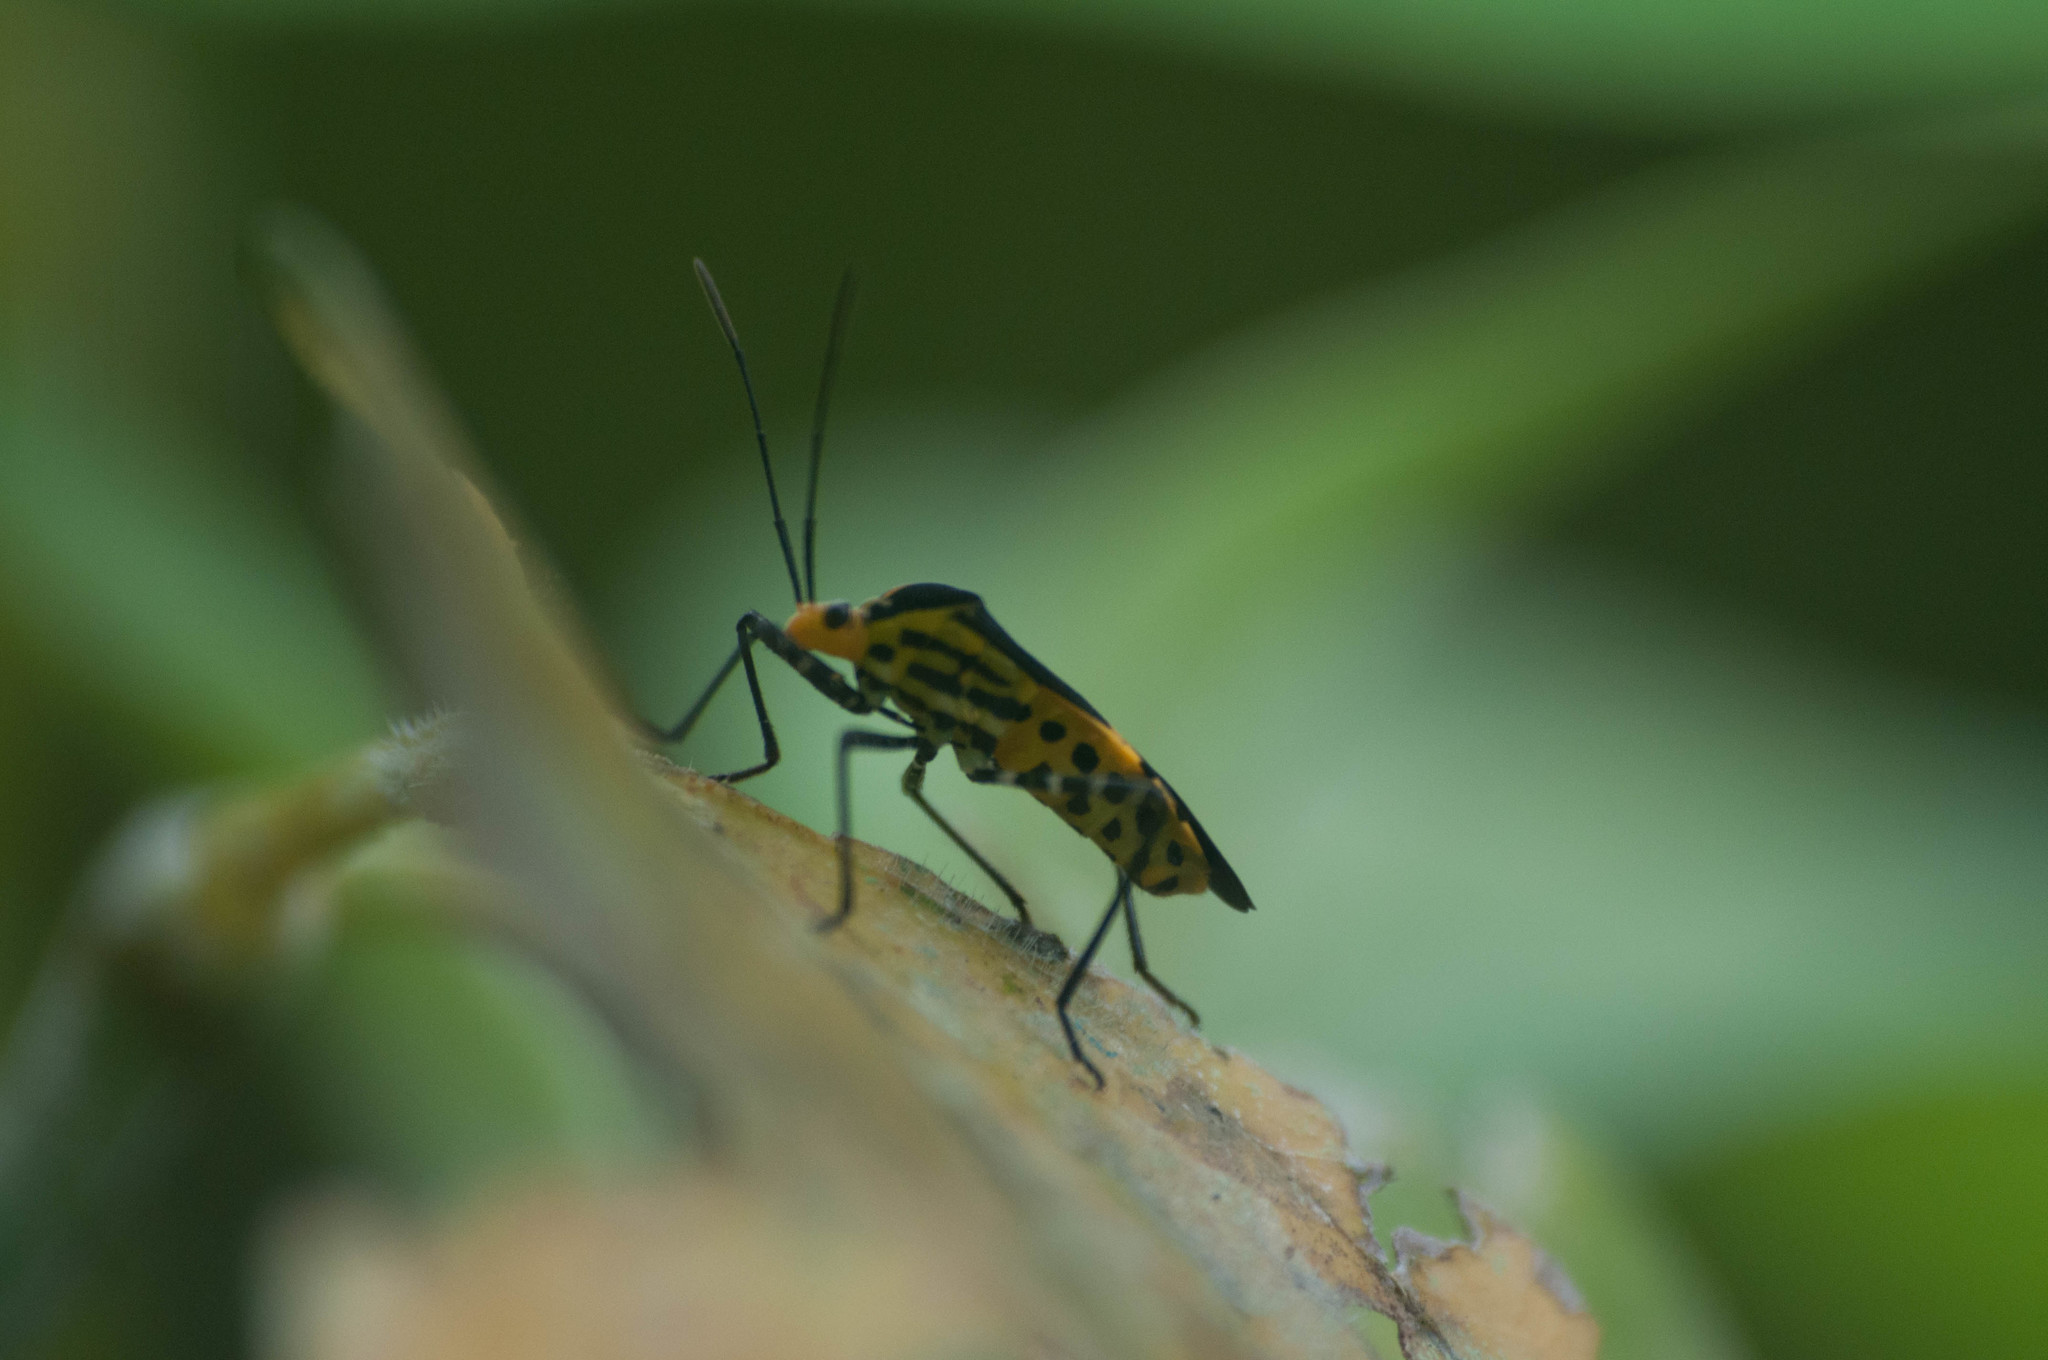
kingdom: Animalia
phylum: Arthropoda
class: Insecta
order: Hemiptera
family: Coreidae
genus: Hypselonotus
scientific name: Hypselonotus linea
